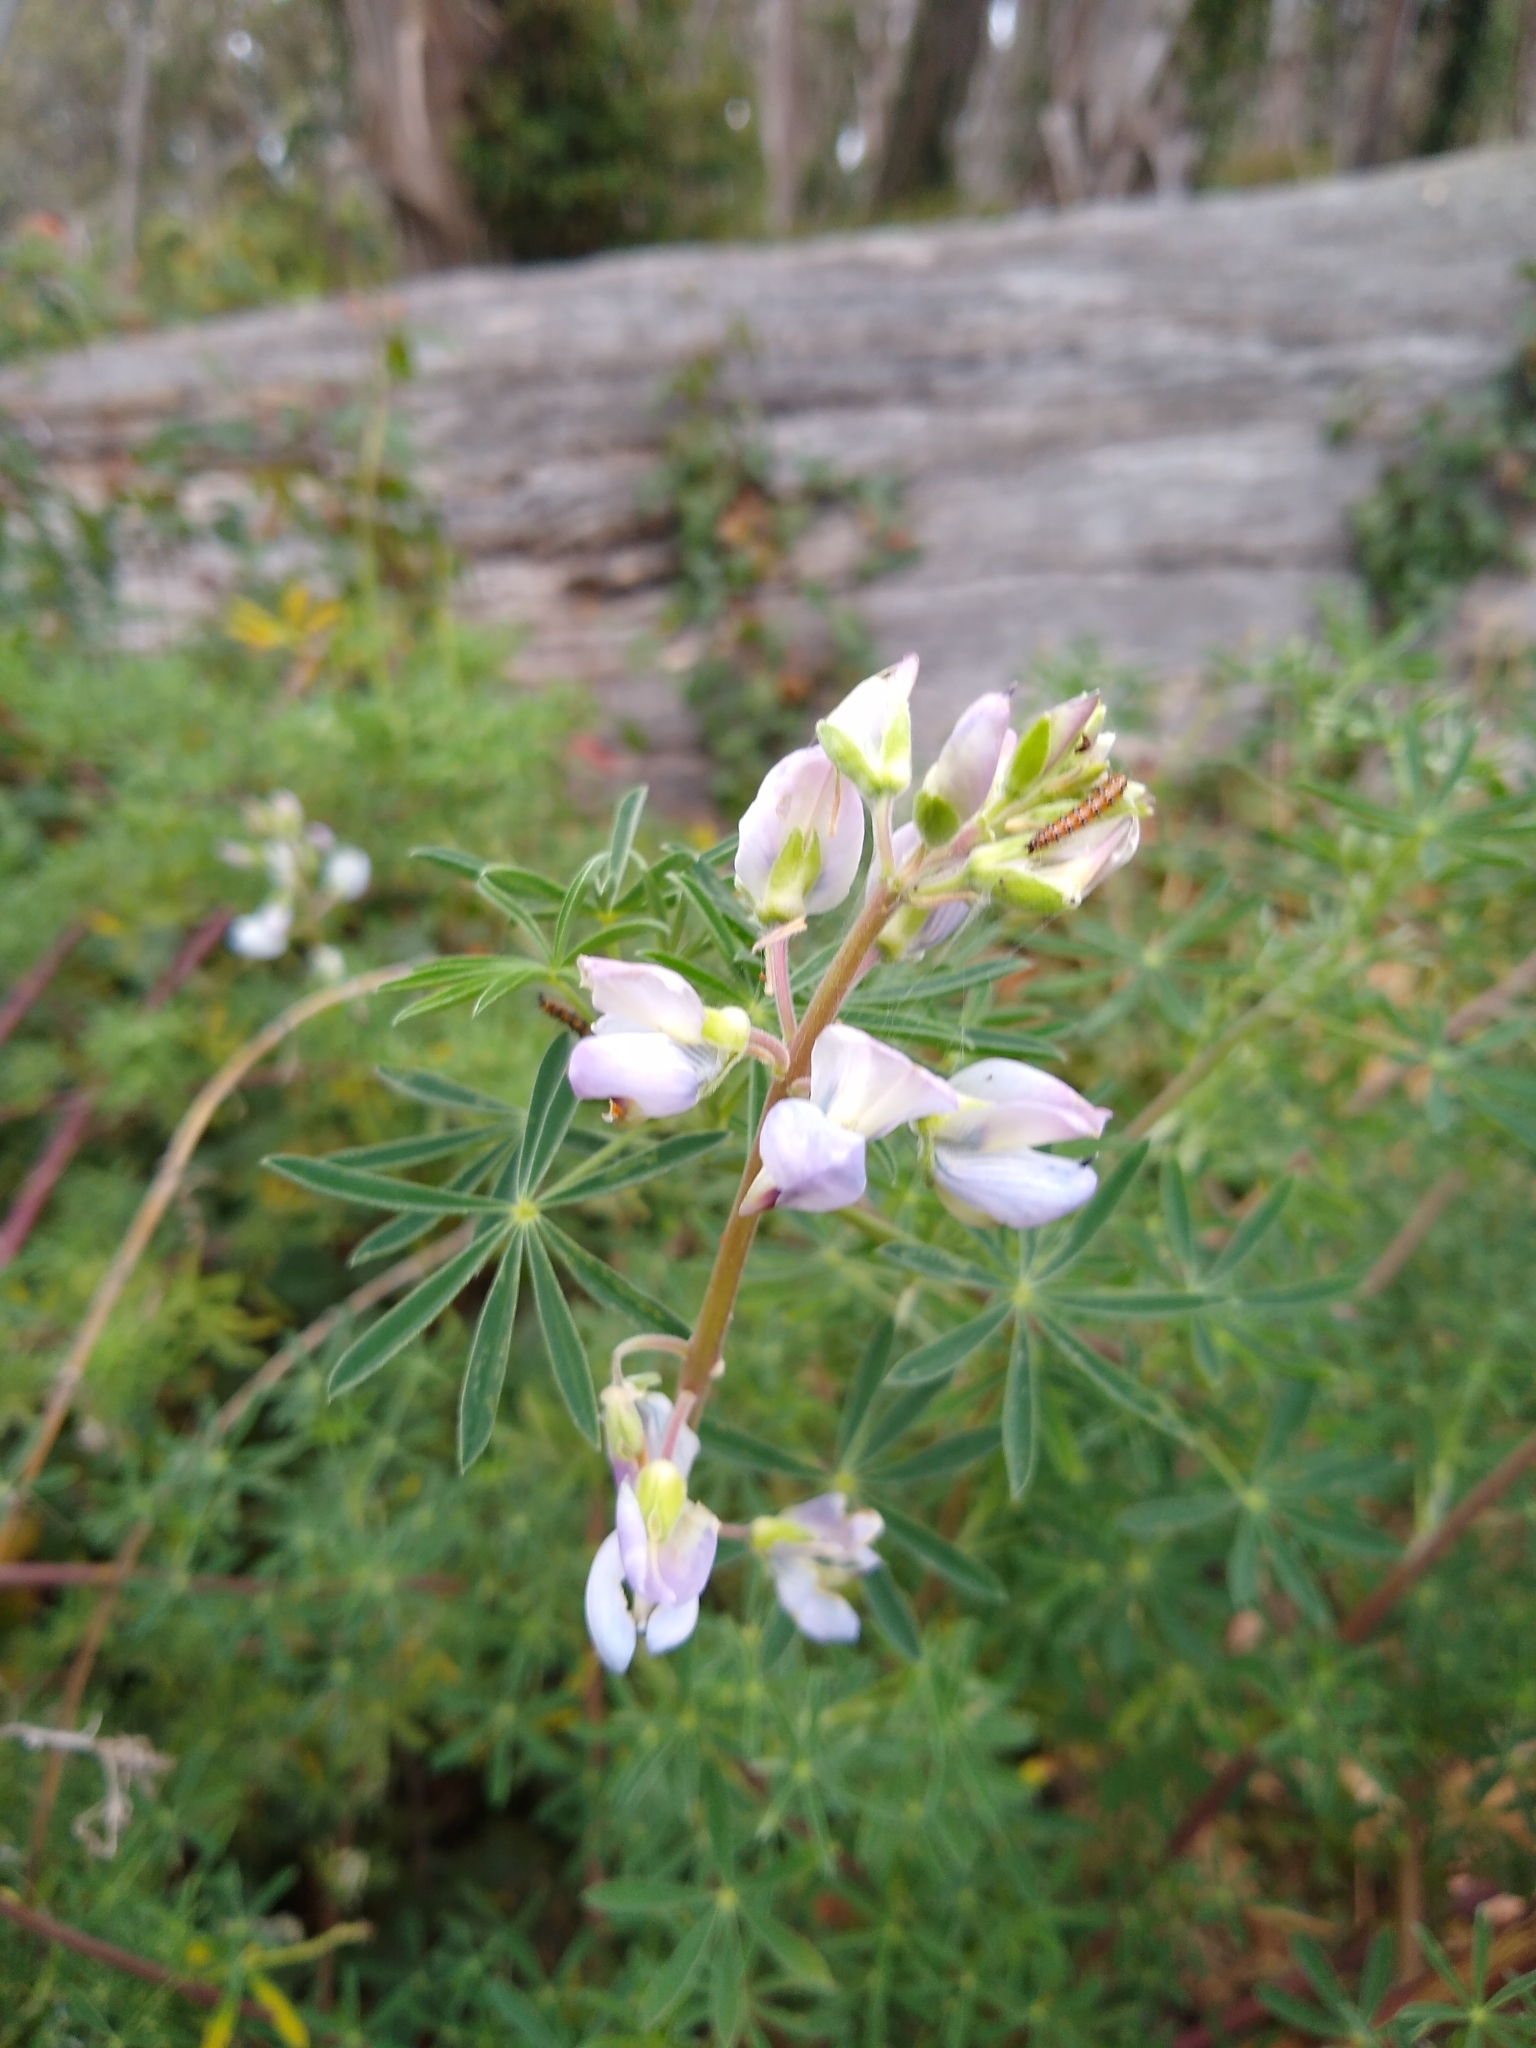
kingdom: Plantae
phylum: Tracheophyta
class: Magnoliopsida
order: Fabales
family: Fabaceae
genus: Lupinus
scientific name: Lupinus arboreus
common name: Yellow bush lupine
